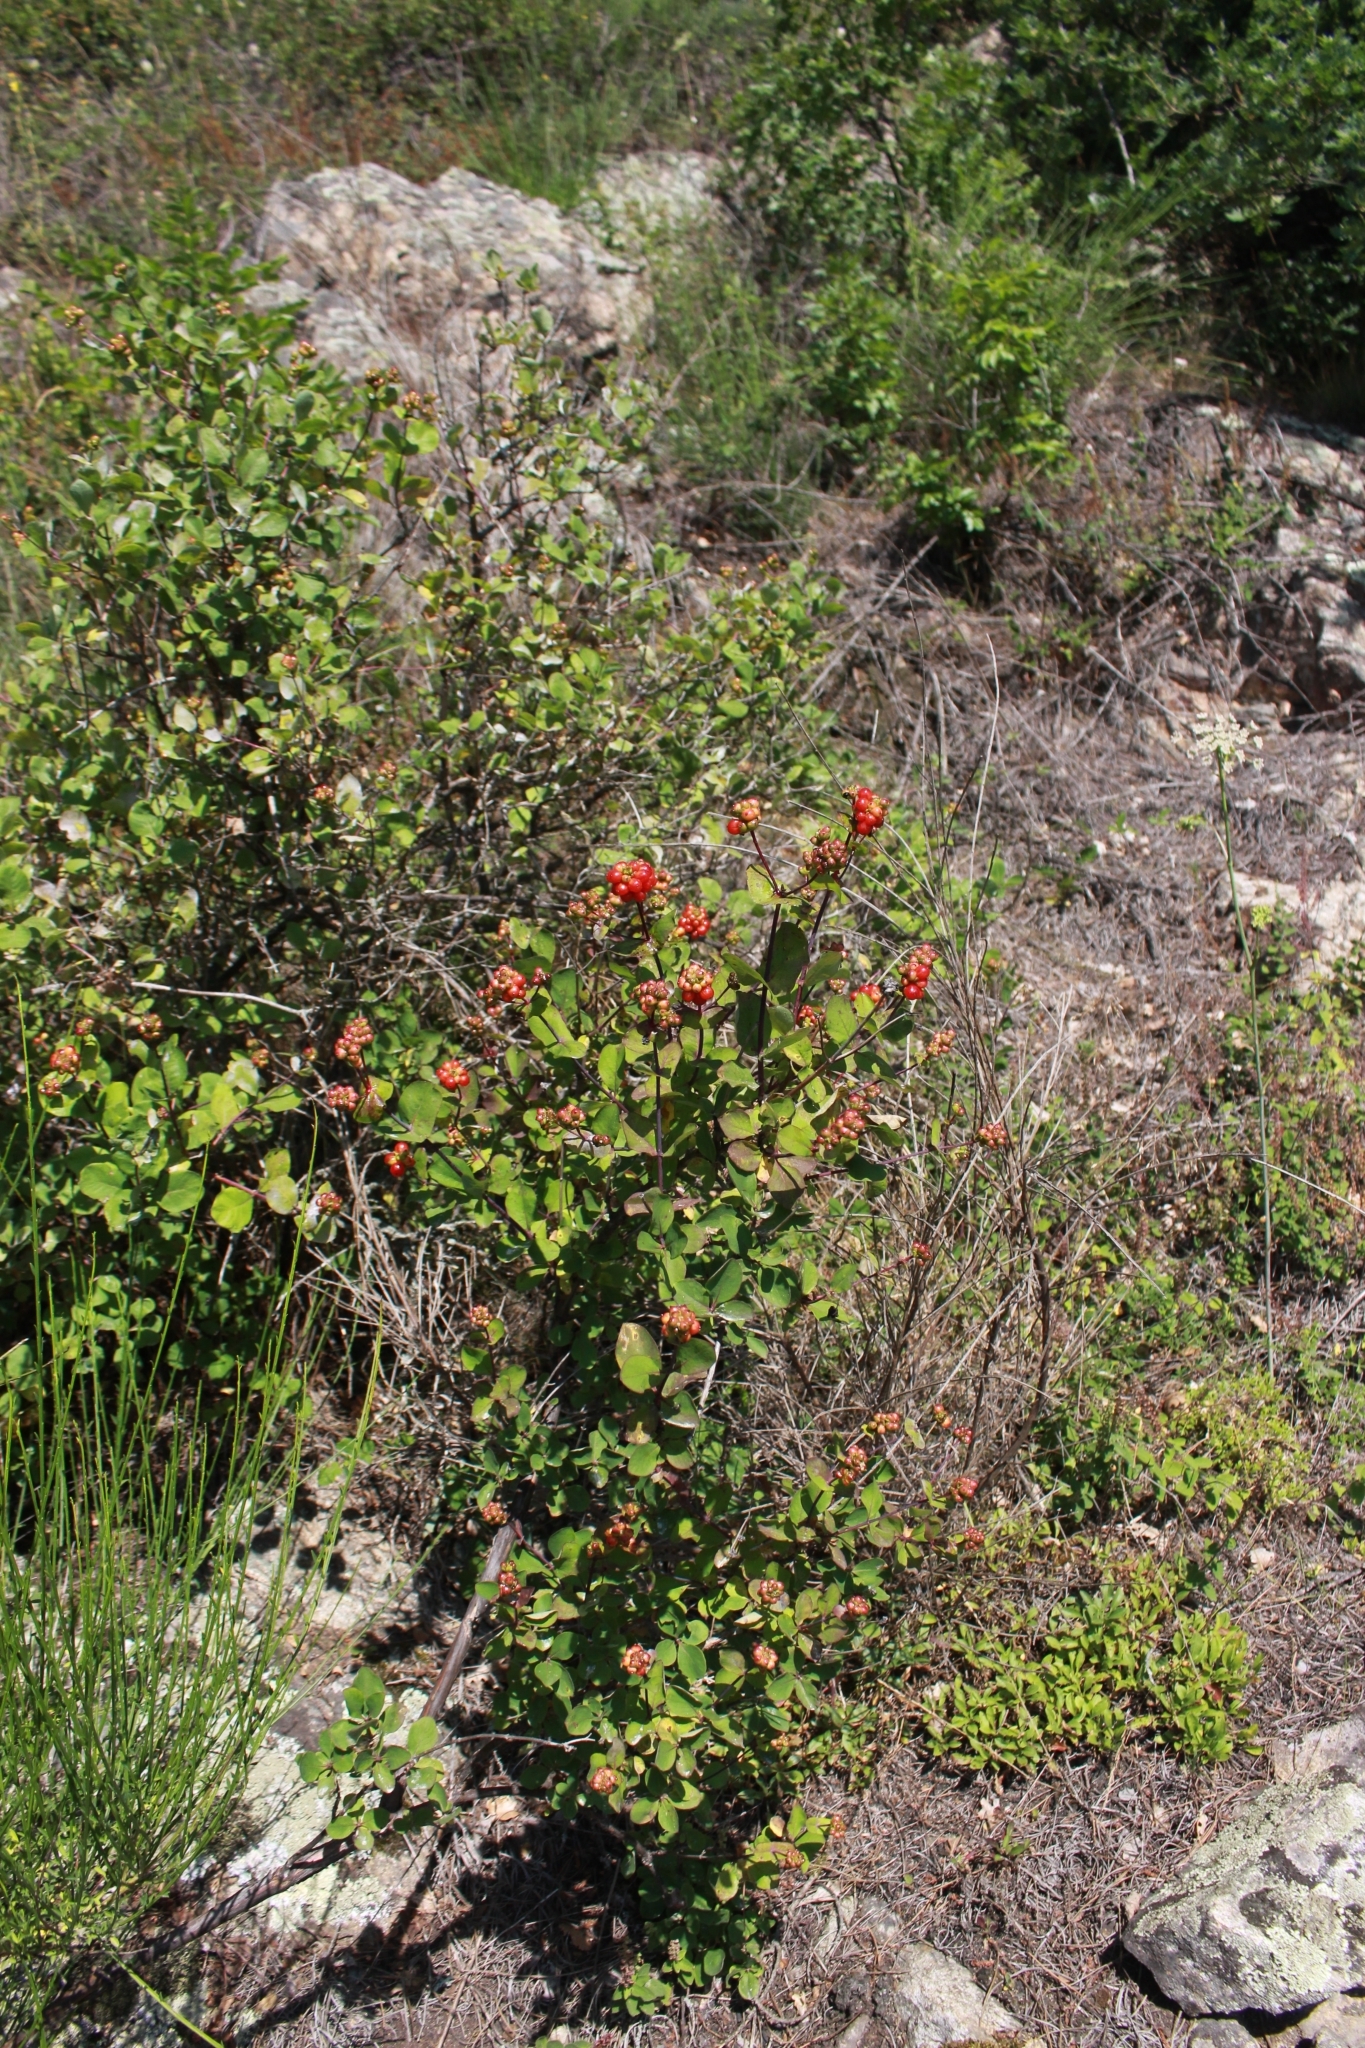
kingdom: Plantae
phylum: Tracheophyta
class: Magnoliopsida
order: Dipsacales
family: Caprifoliaceae
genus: Lonicera
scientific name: Lonicera etrusca
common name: Etruscan honeysuckle
